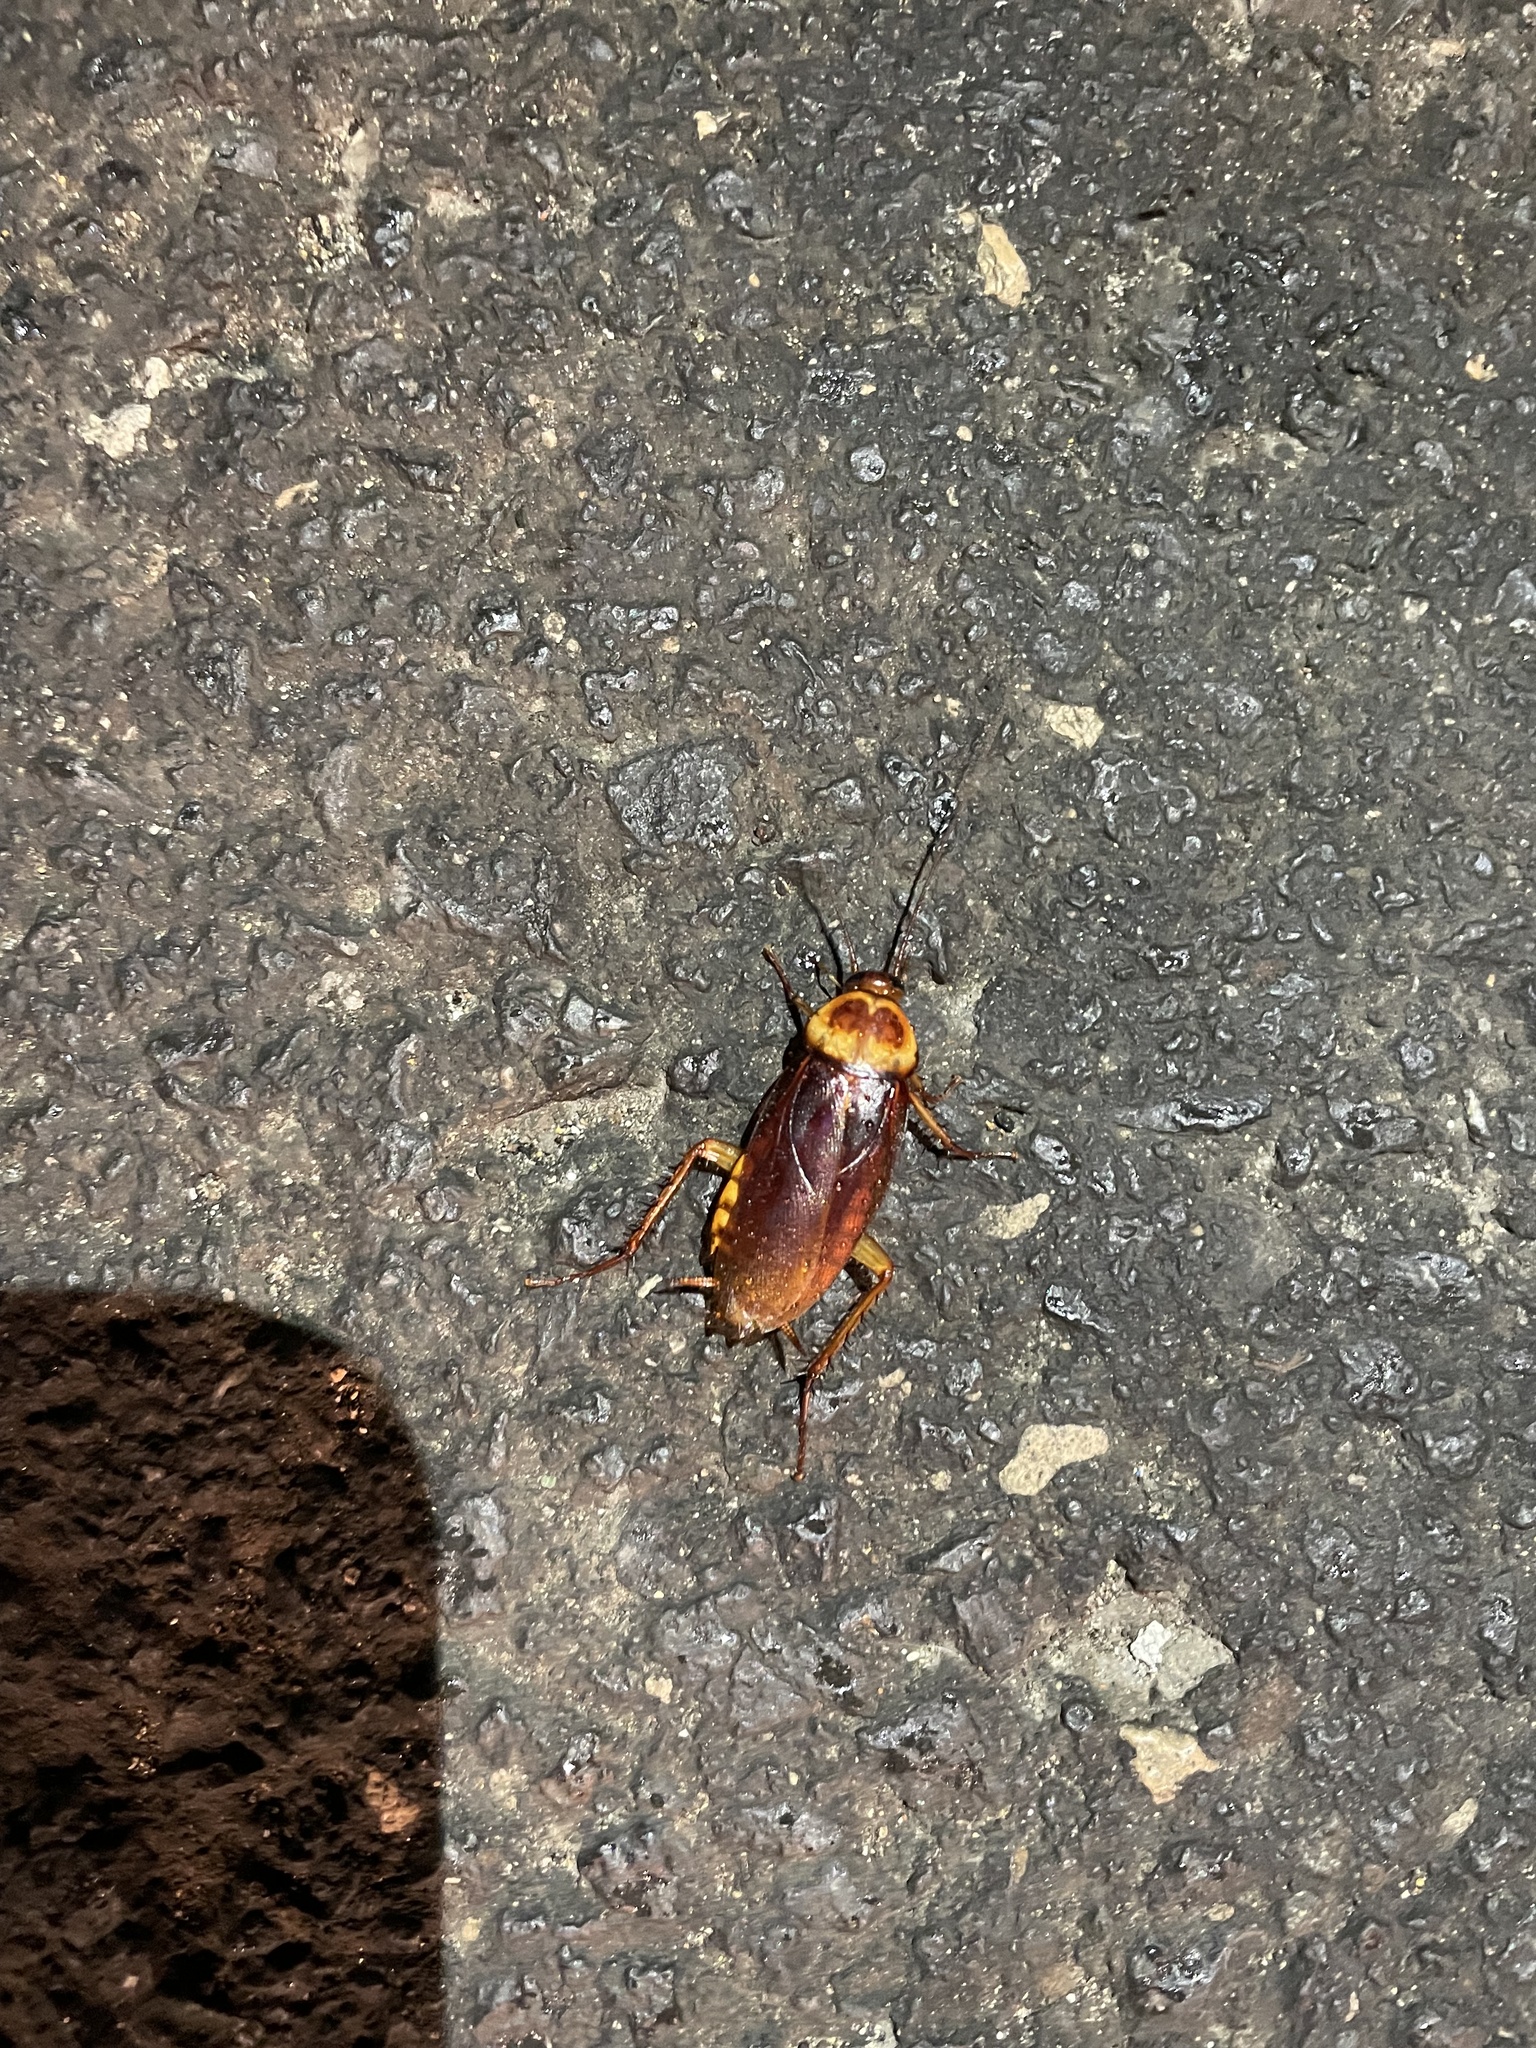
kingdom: Animalia
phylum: Arthropoda
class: Insecta
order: Blattodea
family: Blattidae
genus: Periplaneta
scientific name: Periplaneta americana
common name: American cockroach
